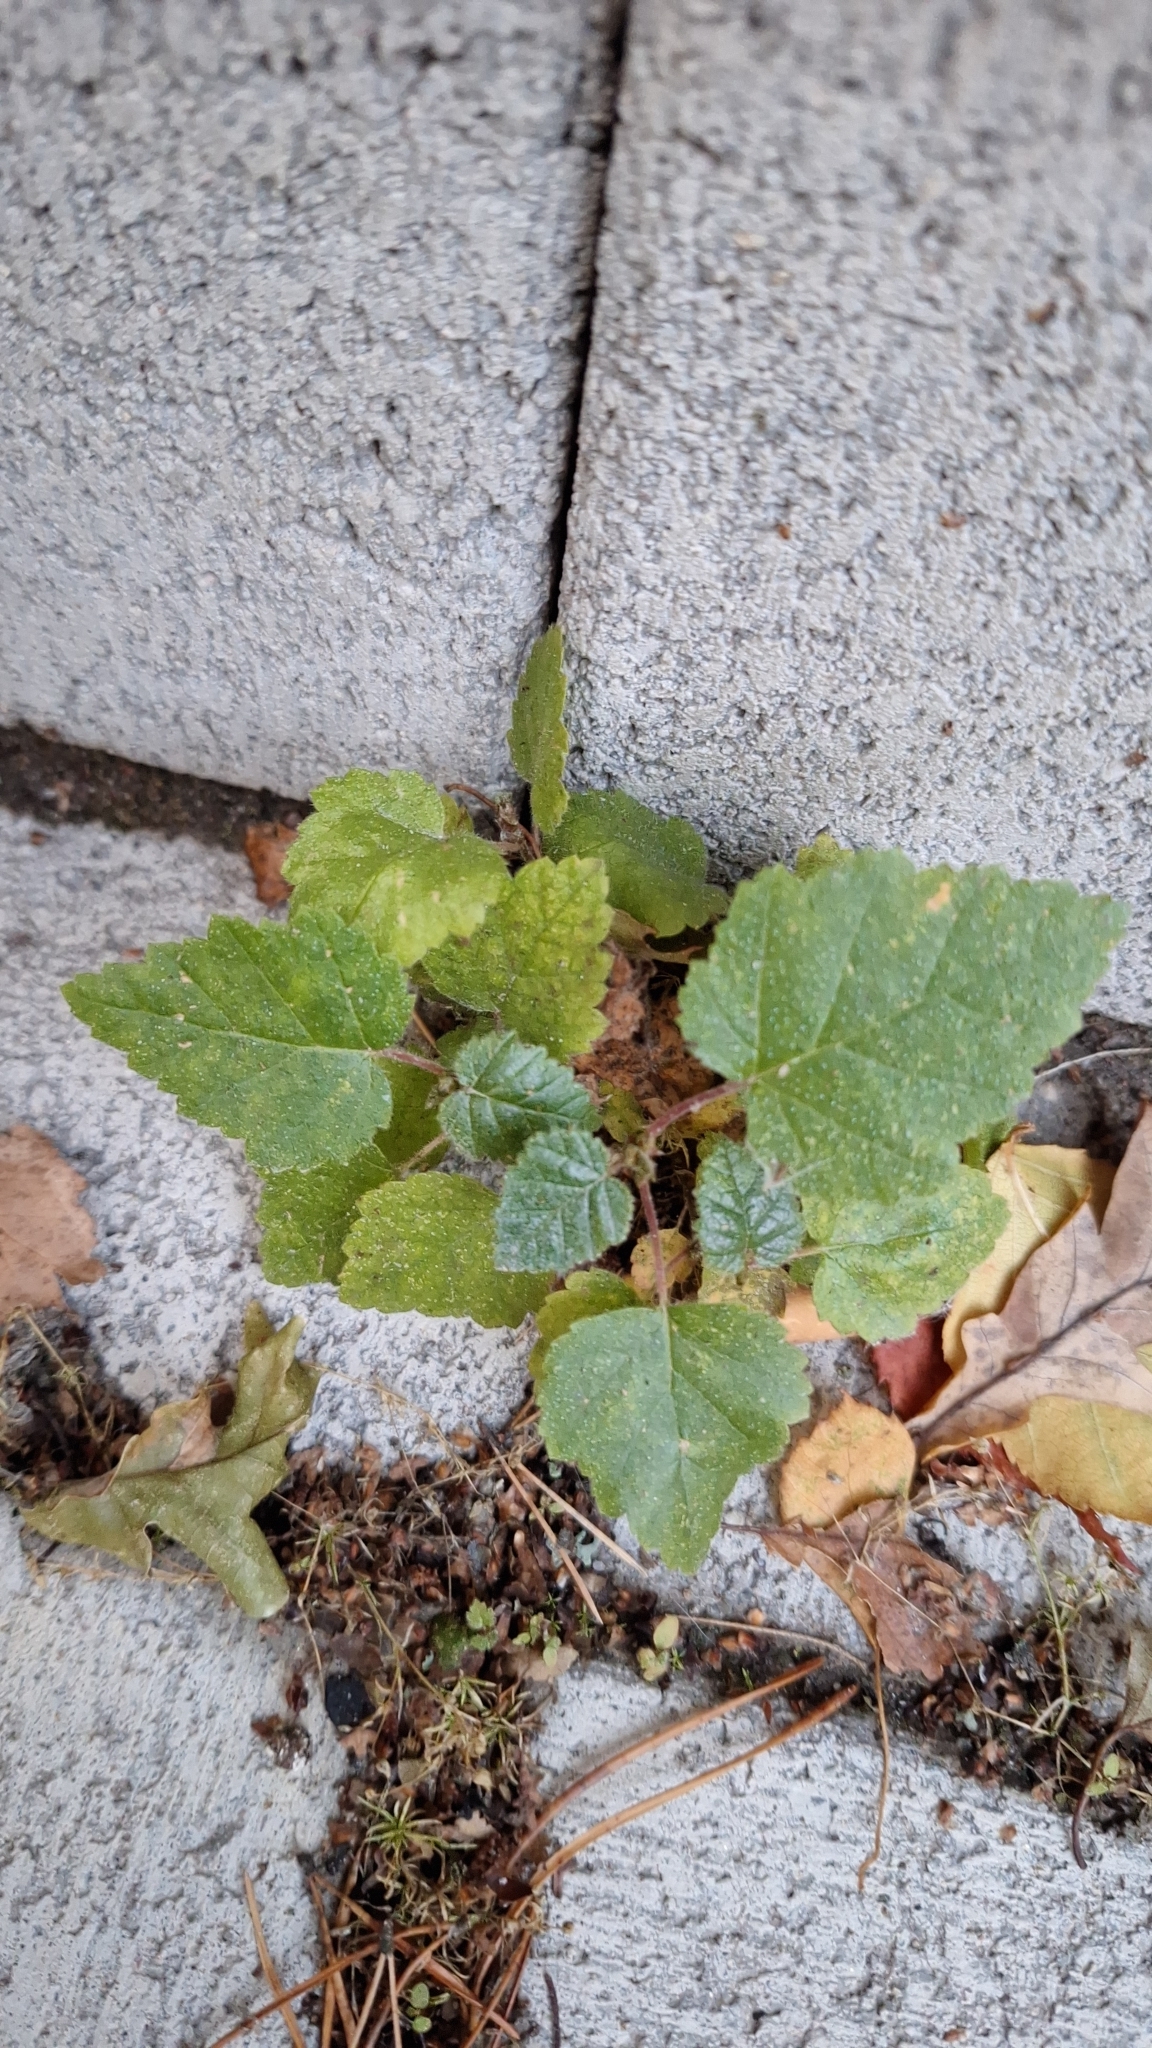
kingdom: Plantae
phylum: Tracheophyta
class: Magnoliopsida
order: Fagales
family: Betulaceae
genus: Betula
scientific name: Betula pubescens
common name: Downy birch
